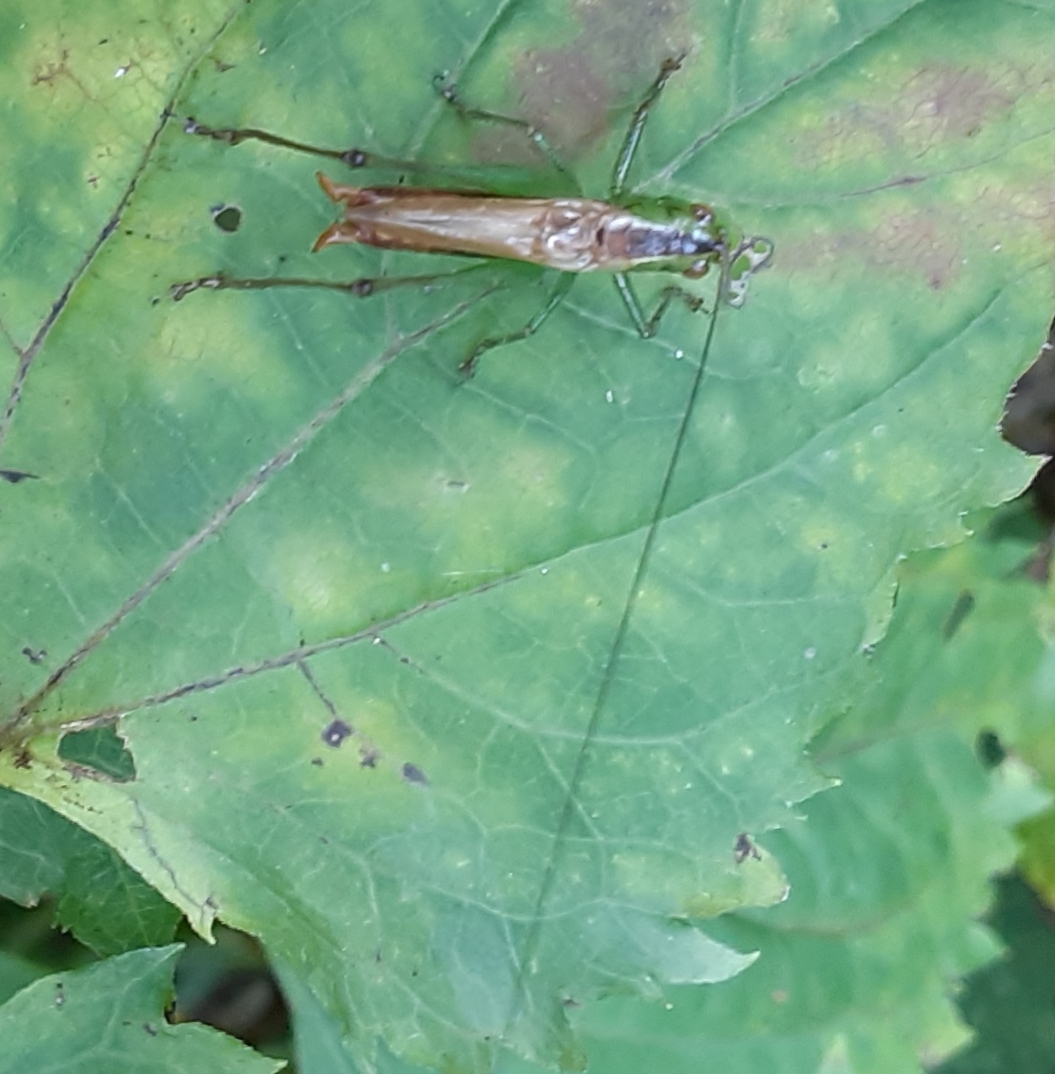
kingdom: Animalia
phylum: Arthropoda
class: Insecta
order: Orthoptera
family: Tettigoniidae
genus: Conocephalus
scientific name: Conocephalus brevipennis
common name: Short-winged meadow katydid
